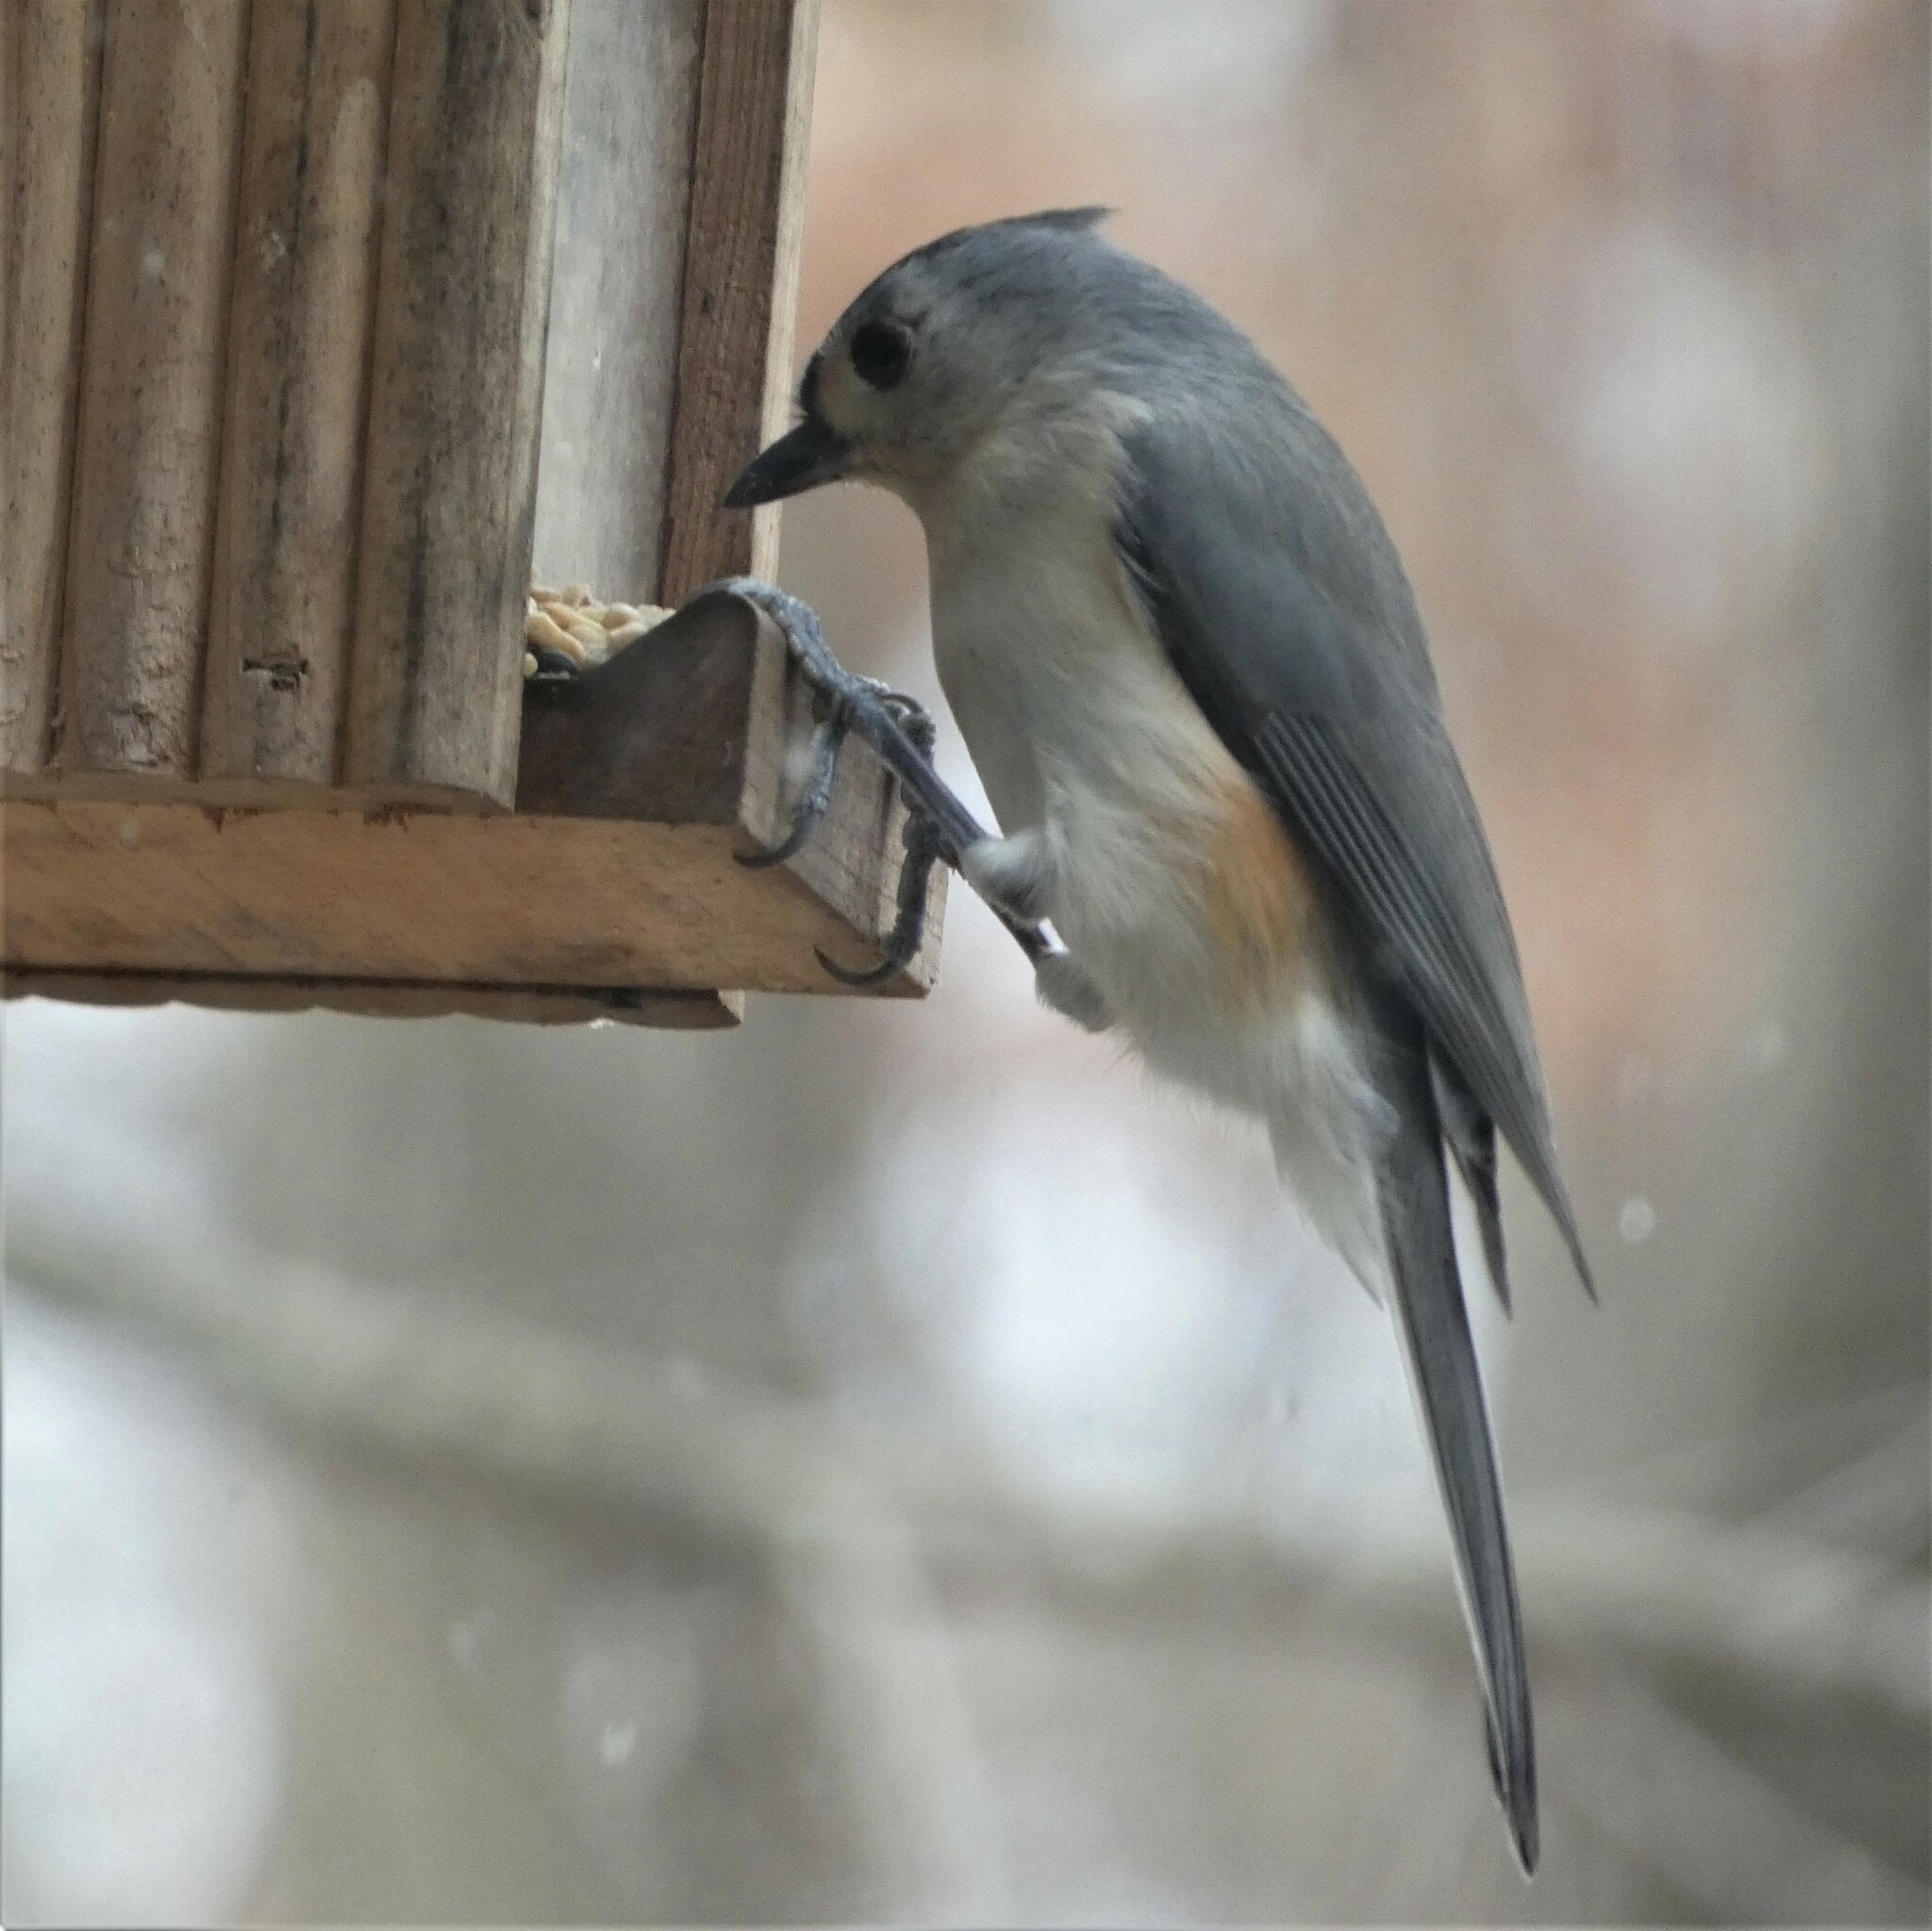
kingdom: Animalia
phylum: Chordata
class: Aves
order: Passeriformes
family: Paridae
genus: Baeolophus
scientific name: Baeolophus bicolor
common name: Tufted titmouse
